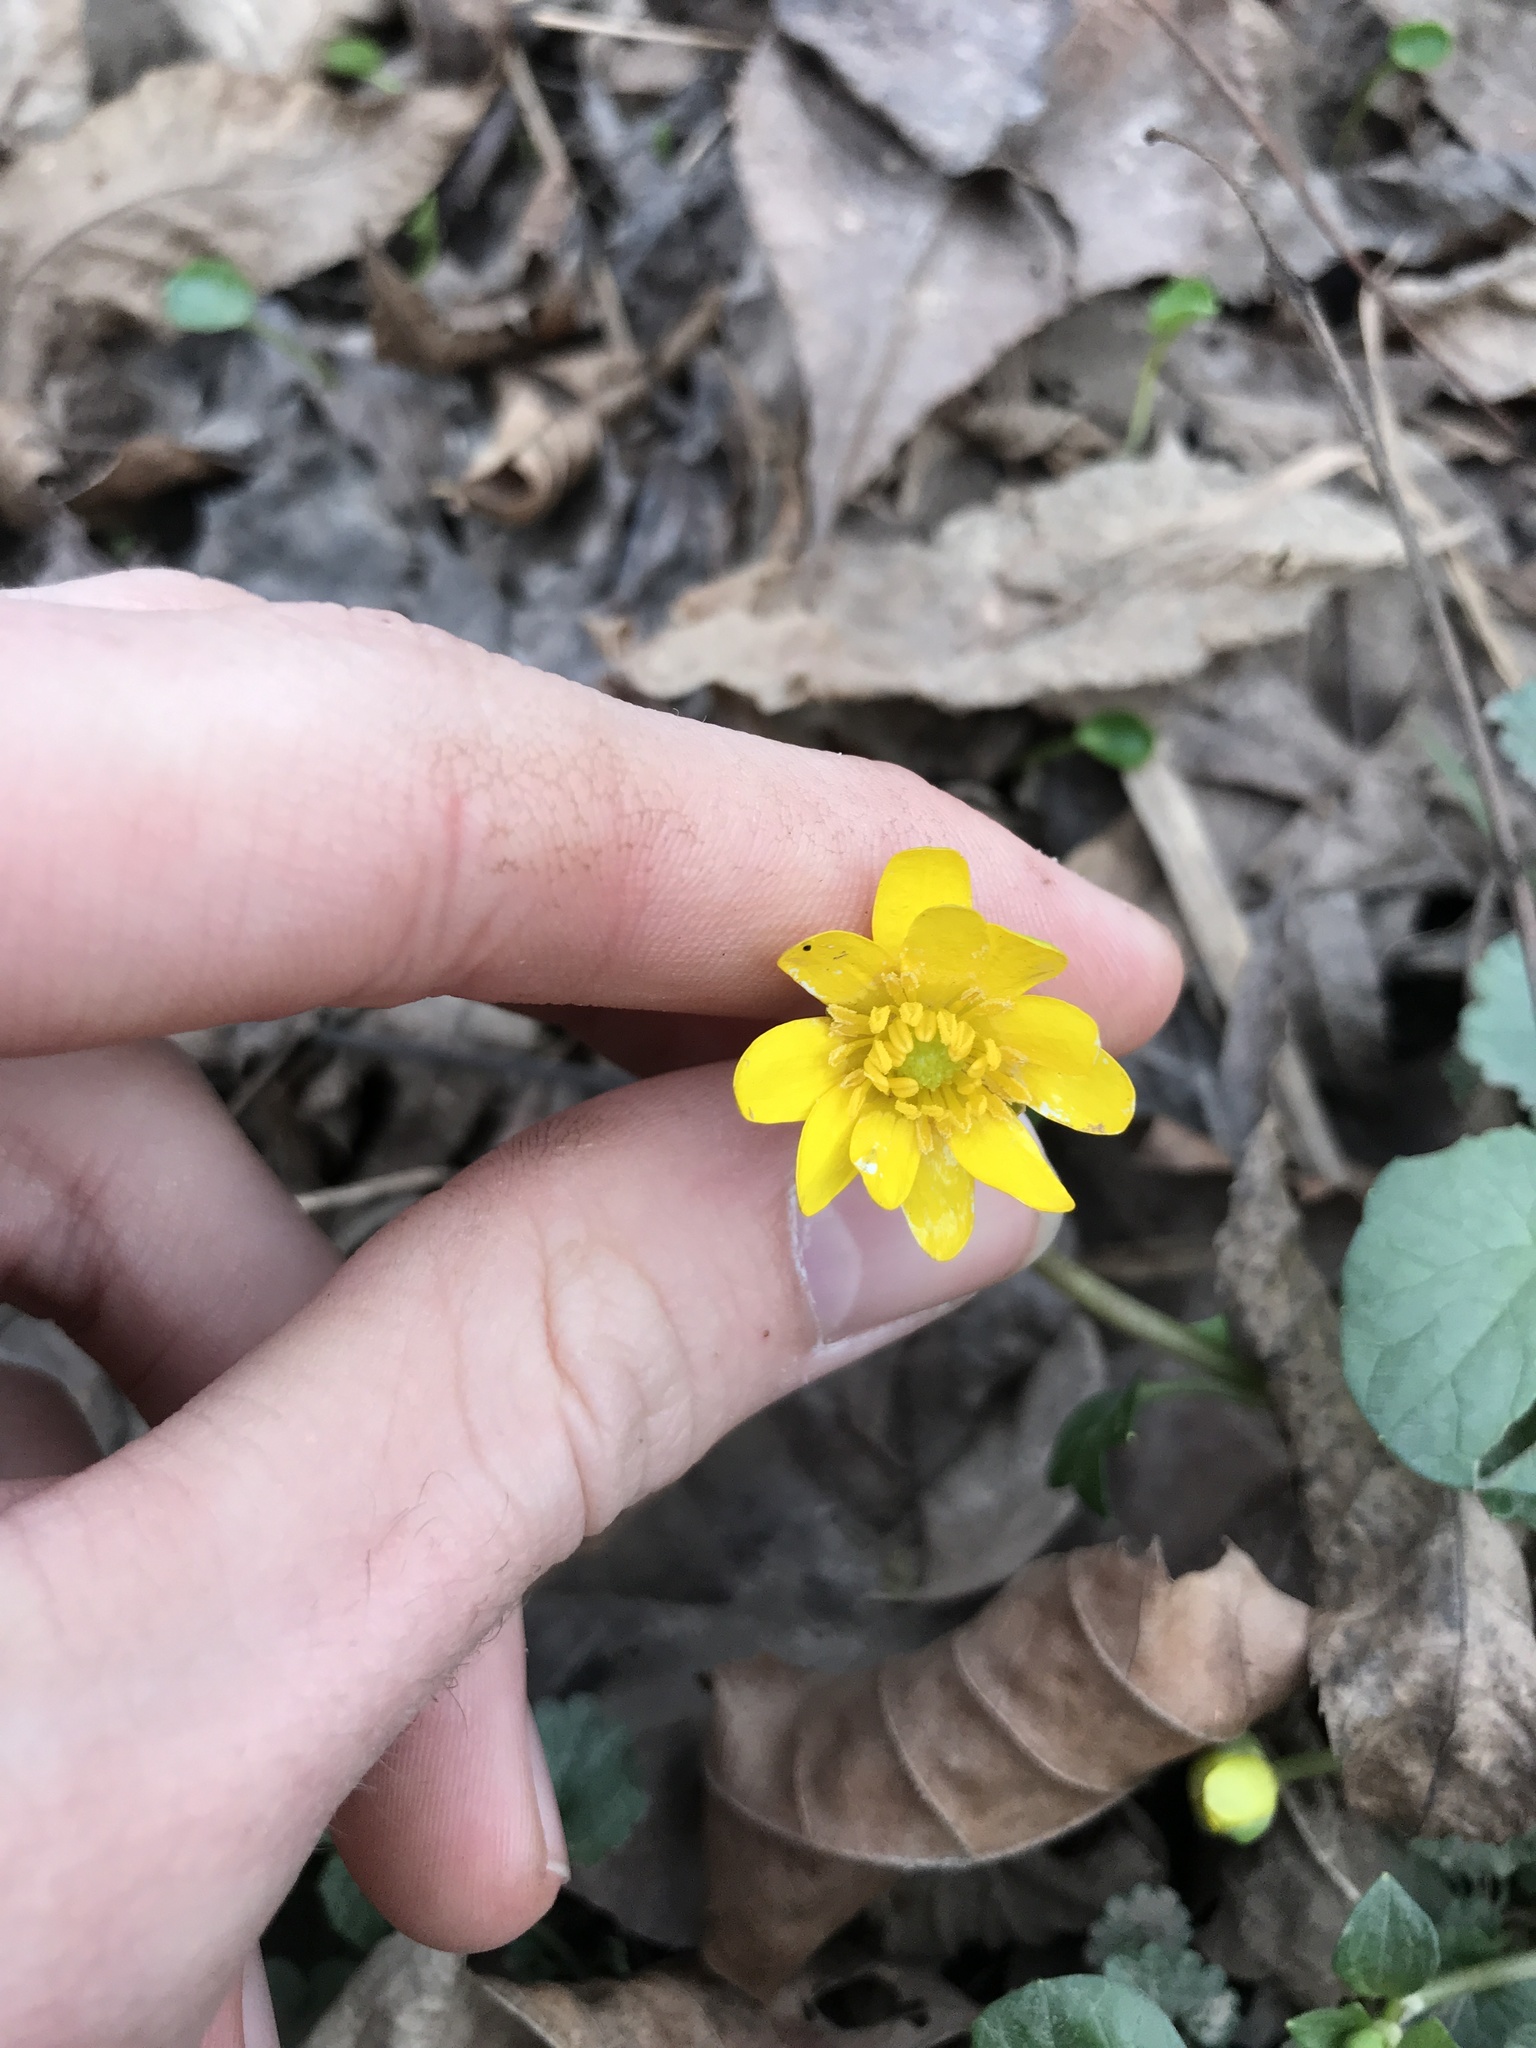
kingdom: Plantae
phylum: Tracheophyta
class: Magnoliopsida
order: Ranunculales
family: Ranunculaceae
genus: Ficaria
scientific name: Ficaria verna
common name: Lesser celandine
